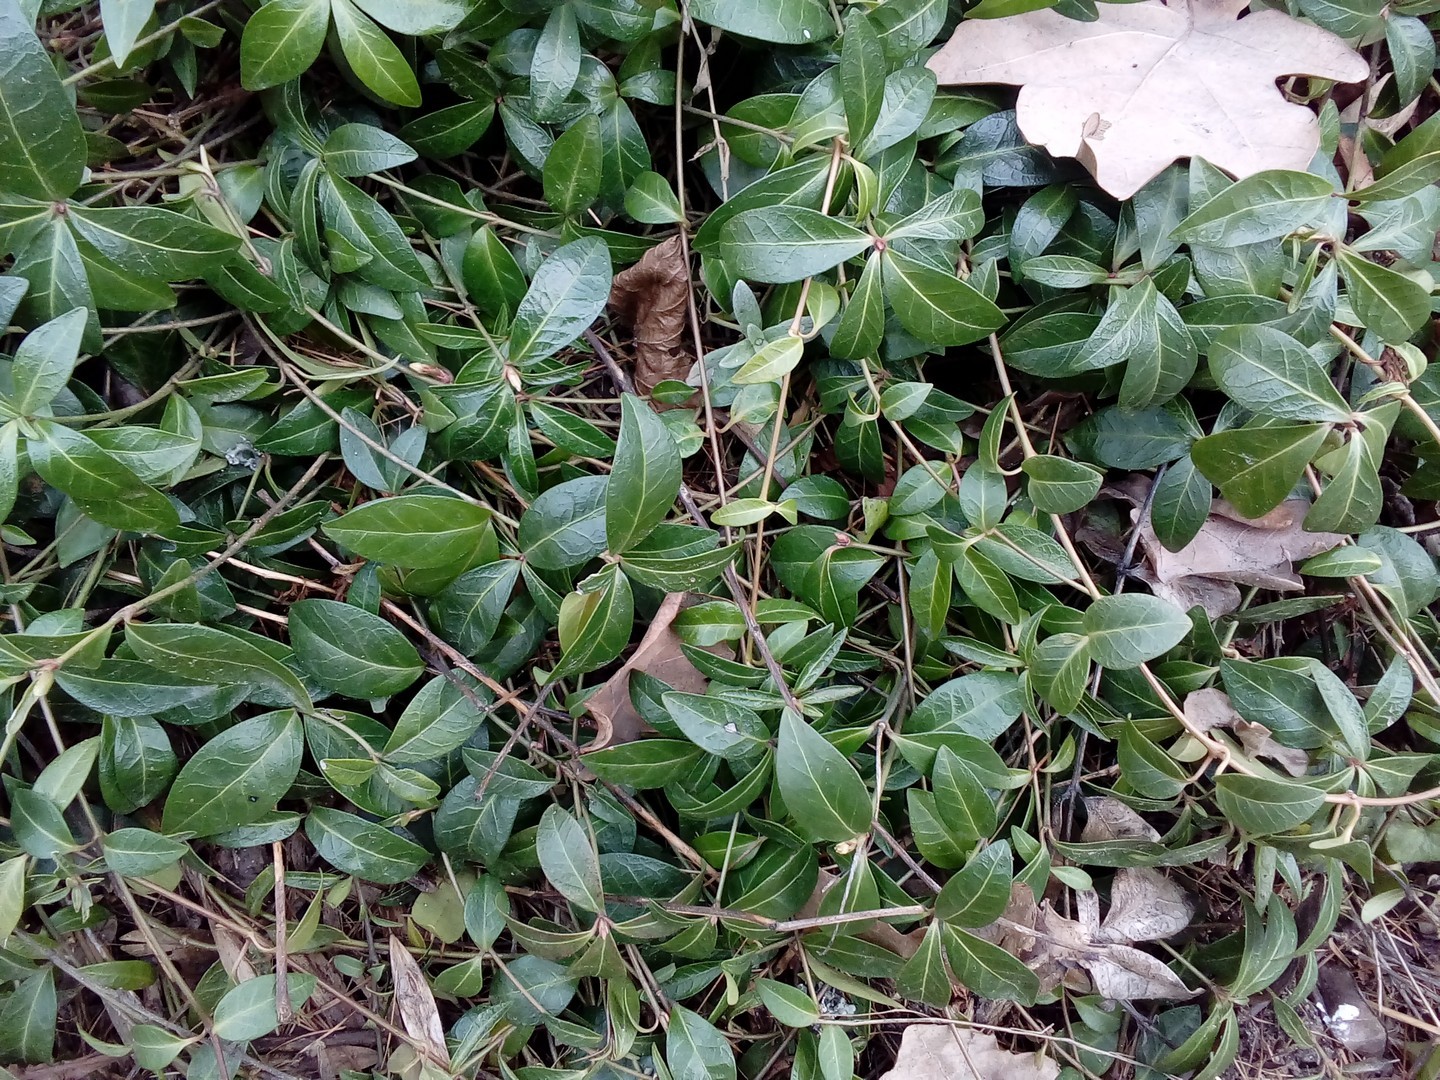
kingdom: Plantae
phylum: Tracheophyta
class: Magnoliopsida
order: Gentianales
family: Apocynaceae
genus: Vinca
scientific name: Vinca minor
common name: Lesser periwinkle
